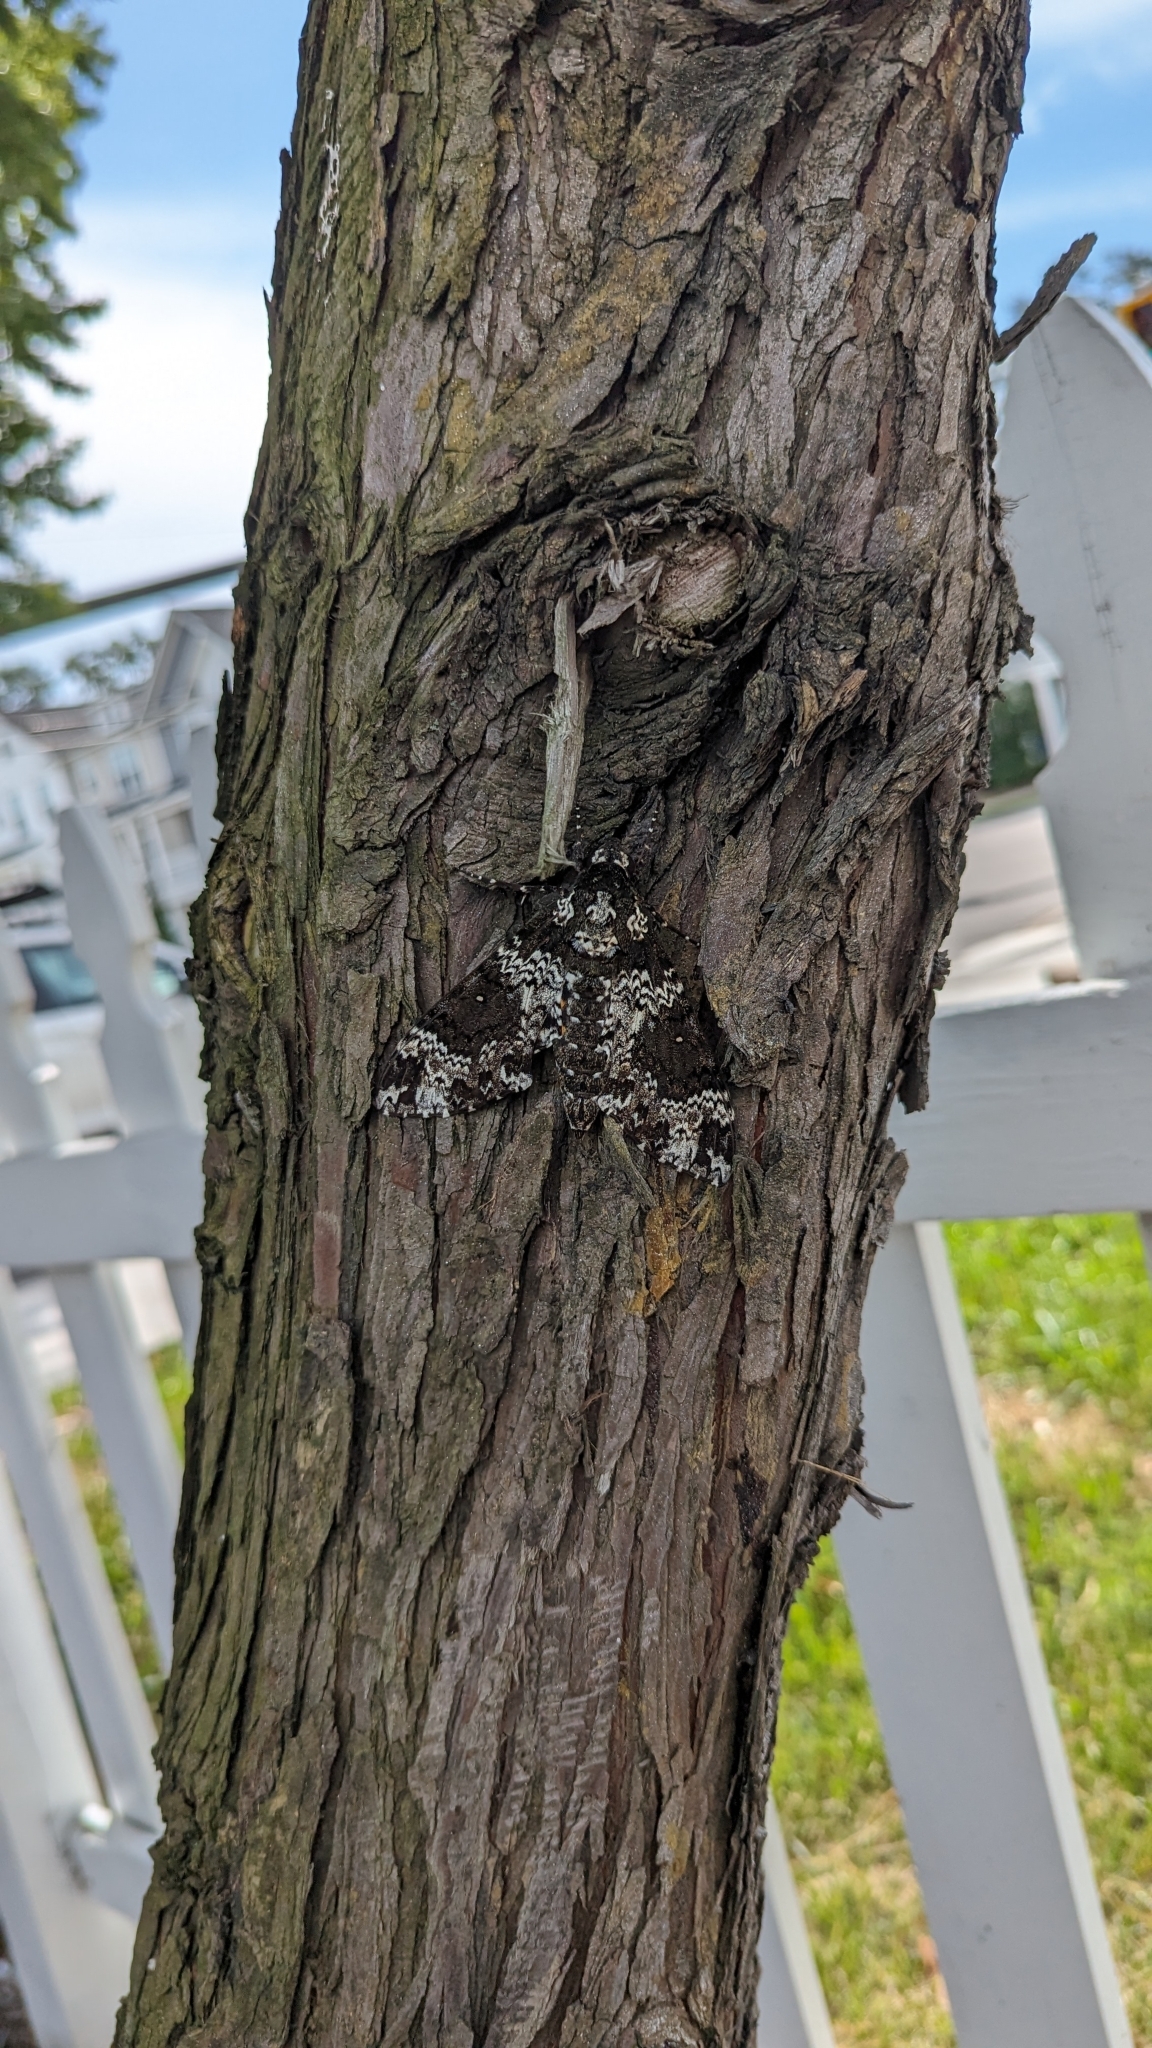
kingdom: Animalia
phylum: Arthropoda
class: Insecta
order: Lepidoptera
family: Sphingidae
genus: Manduca
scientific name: Manduca rustica
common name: Rustic sphinx
